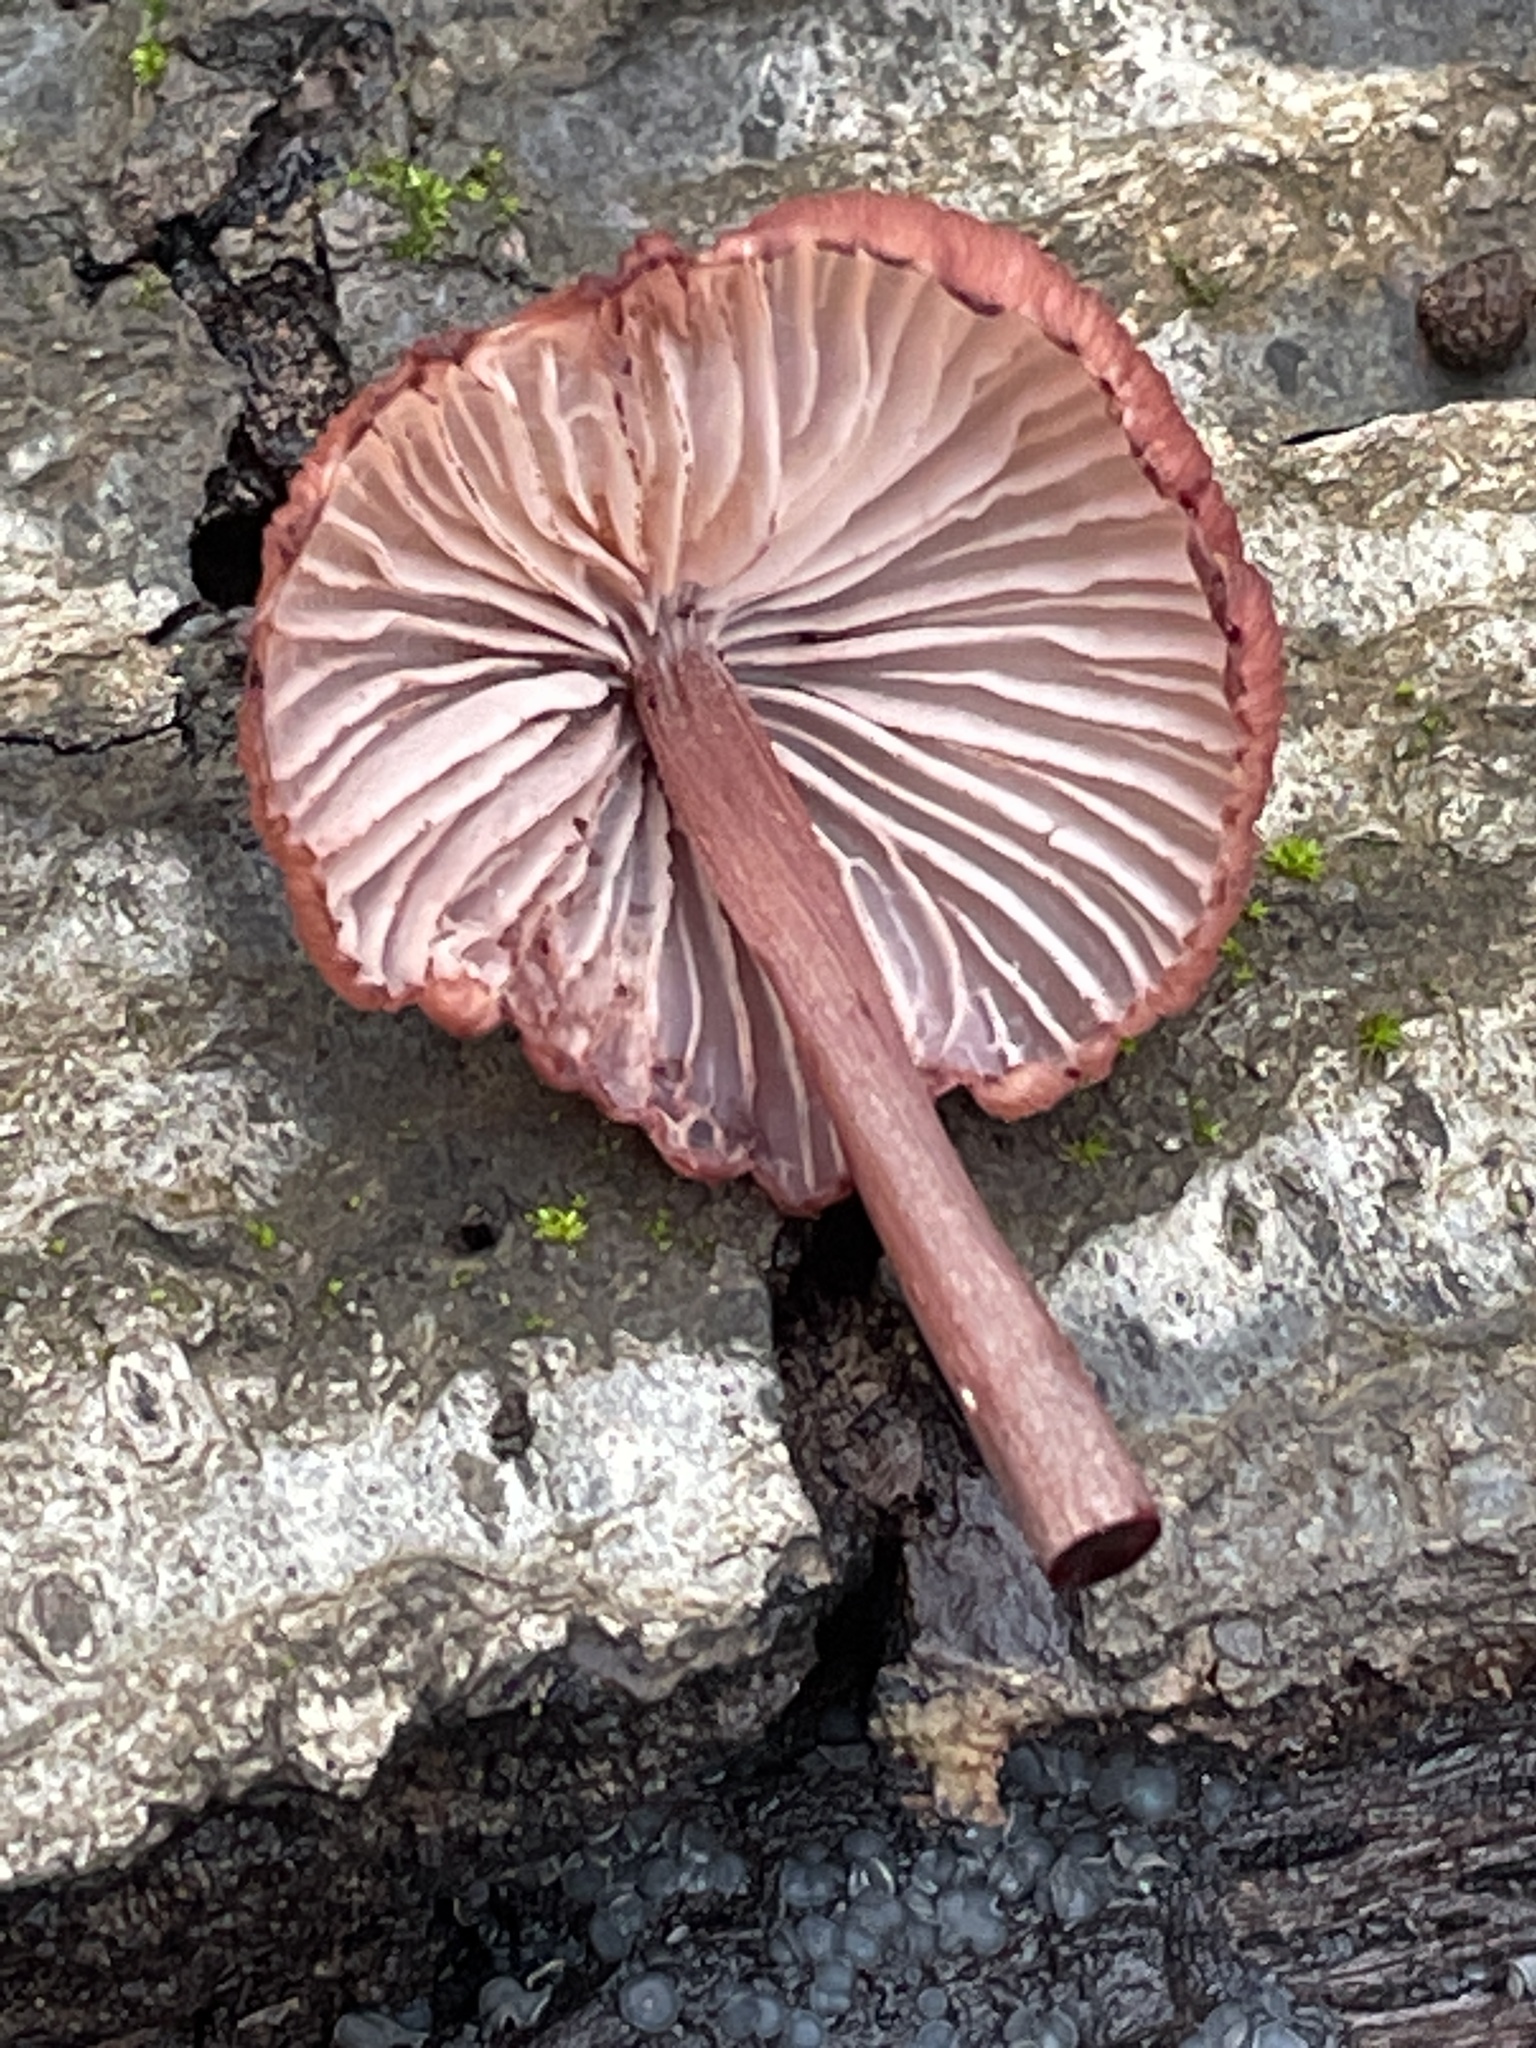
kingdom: Fungi
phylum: Basidiomycota
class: Agaricomycetes
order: Agaricales
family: Mycenaceae
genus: Mycena
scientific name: Mycena haematopus
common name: Burgundydrop bonnet
